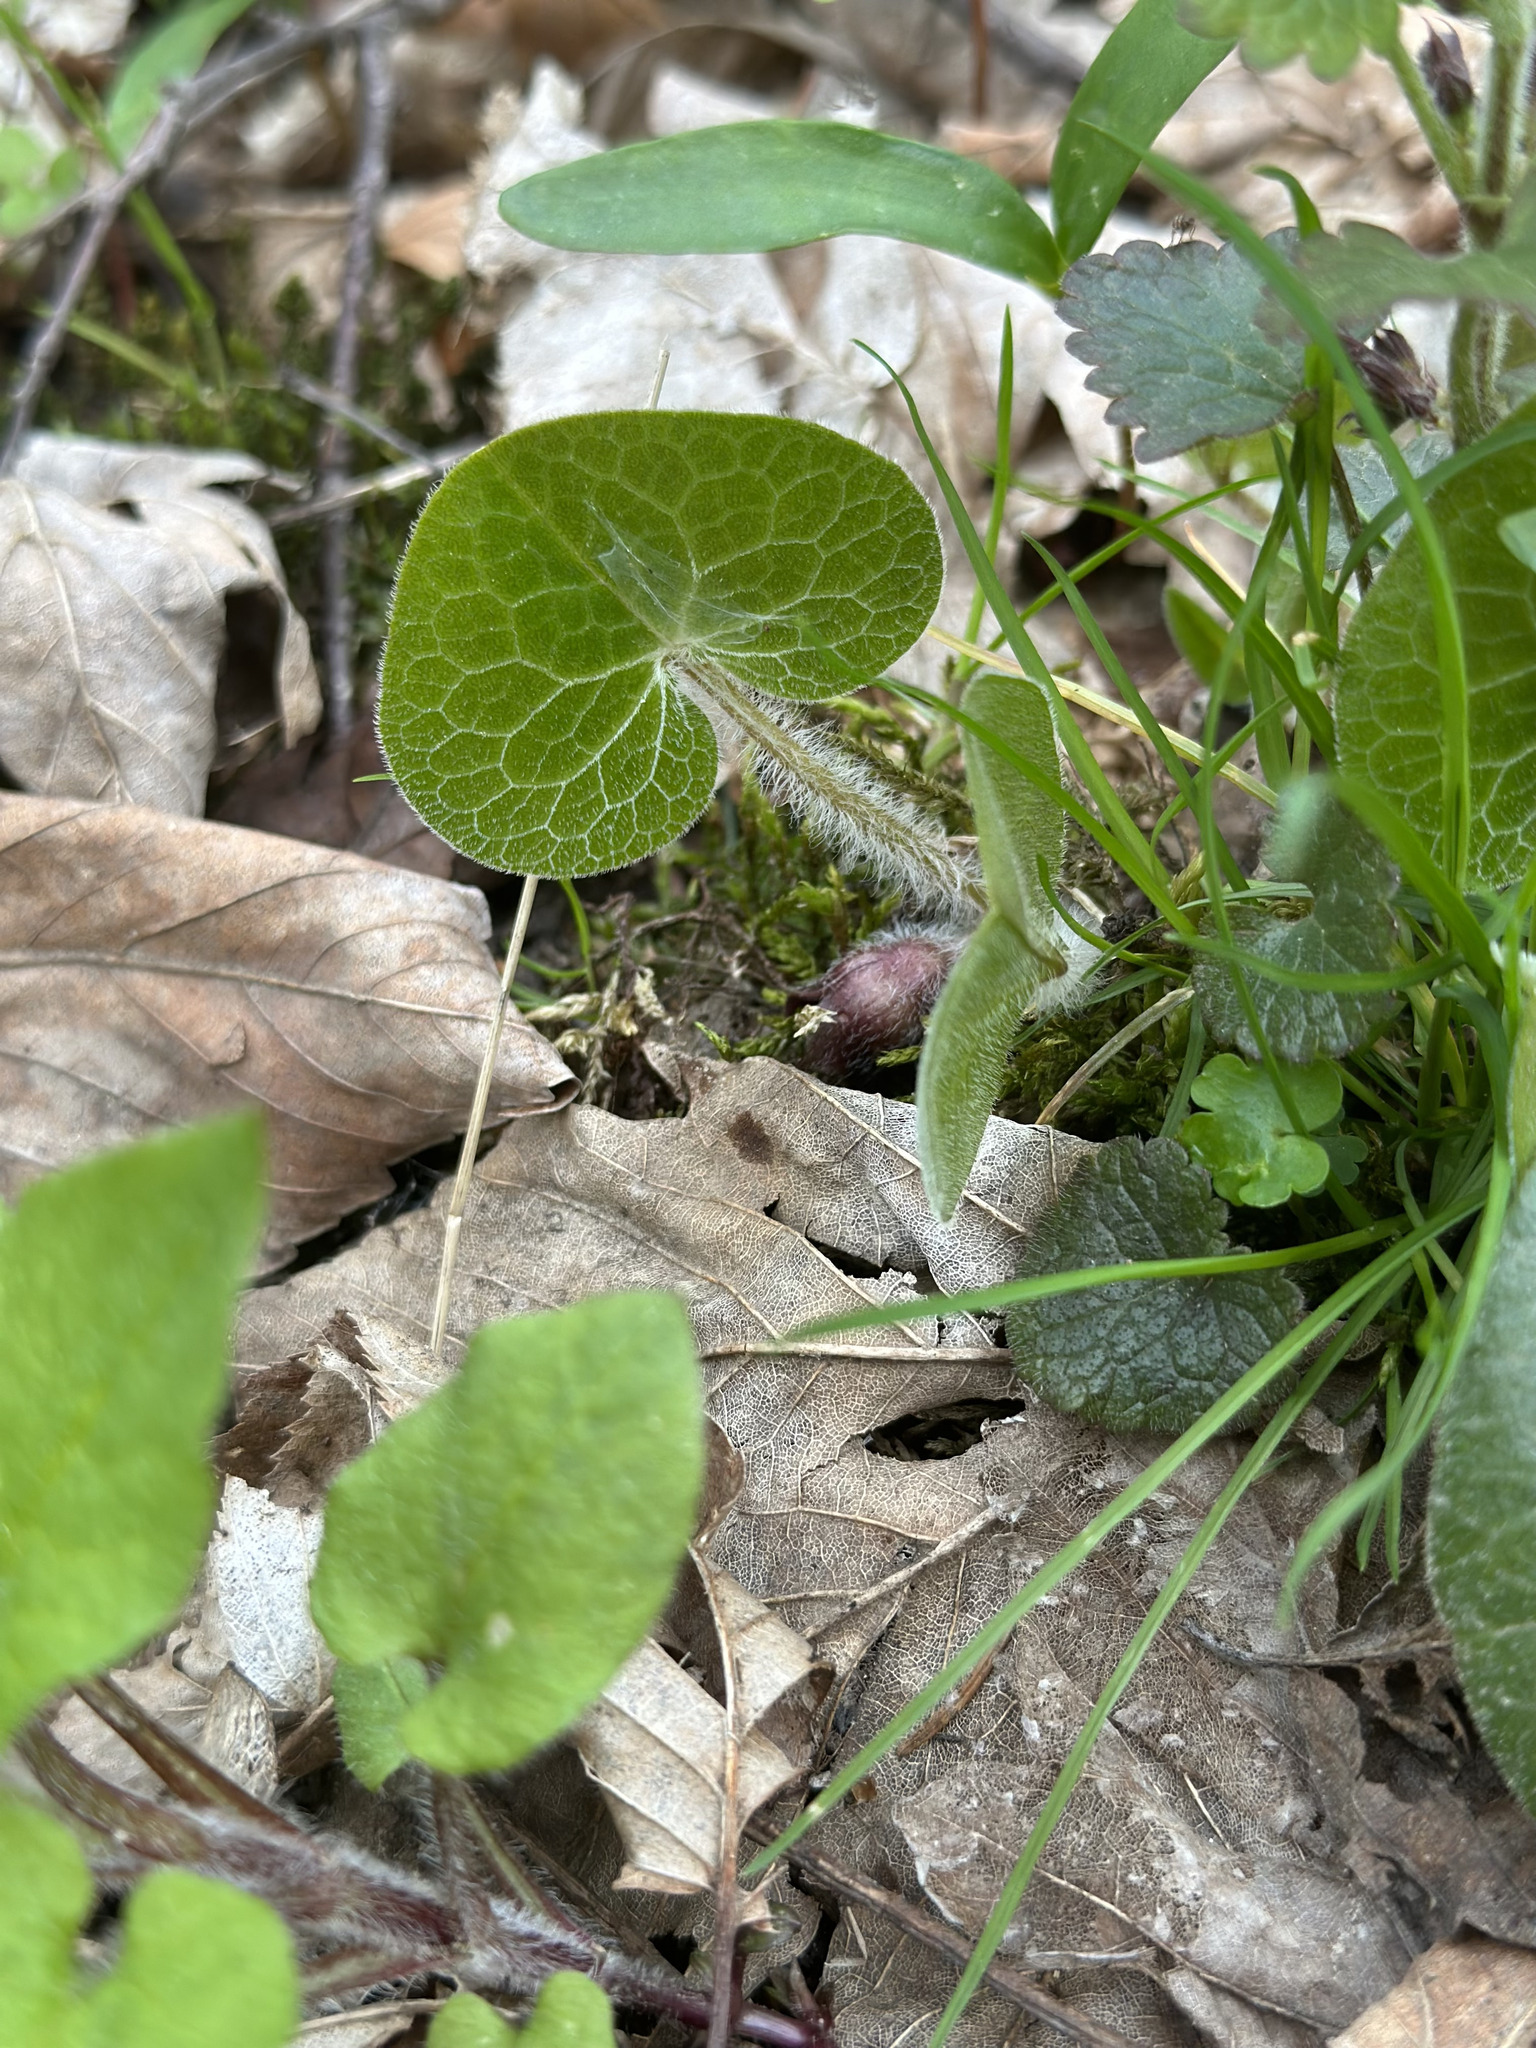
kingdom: Plantae
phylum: Tracheophyta
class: Magnoliopsida
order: Piperales
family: Aristolochiaceae
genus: Asarum
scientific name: Asarum europaeum
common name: Asarabacca
